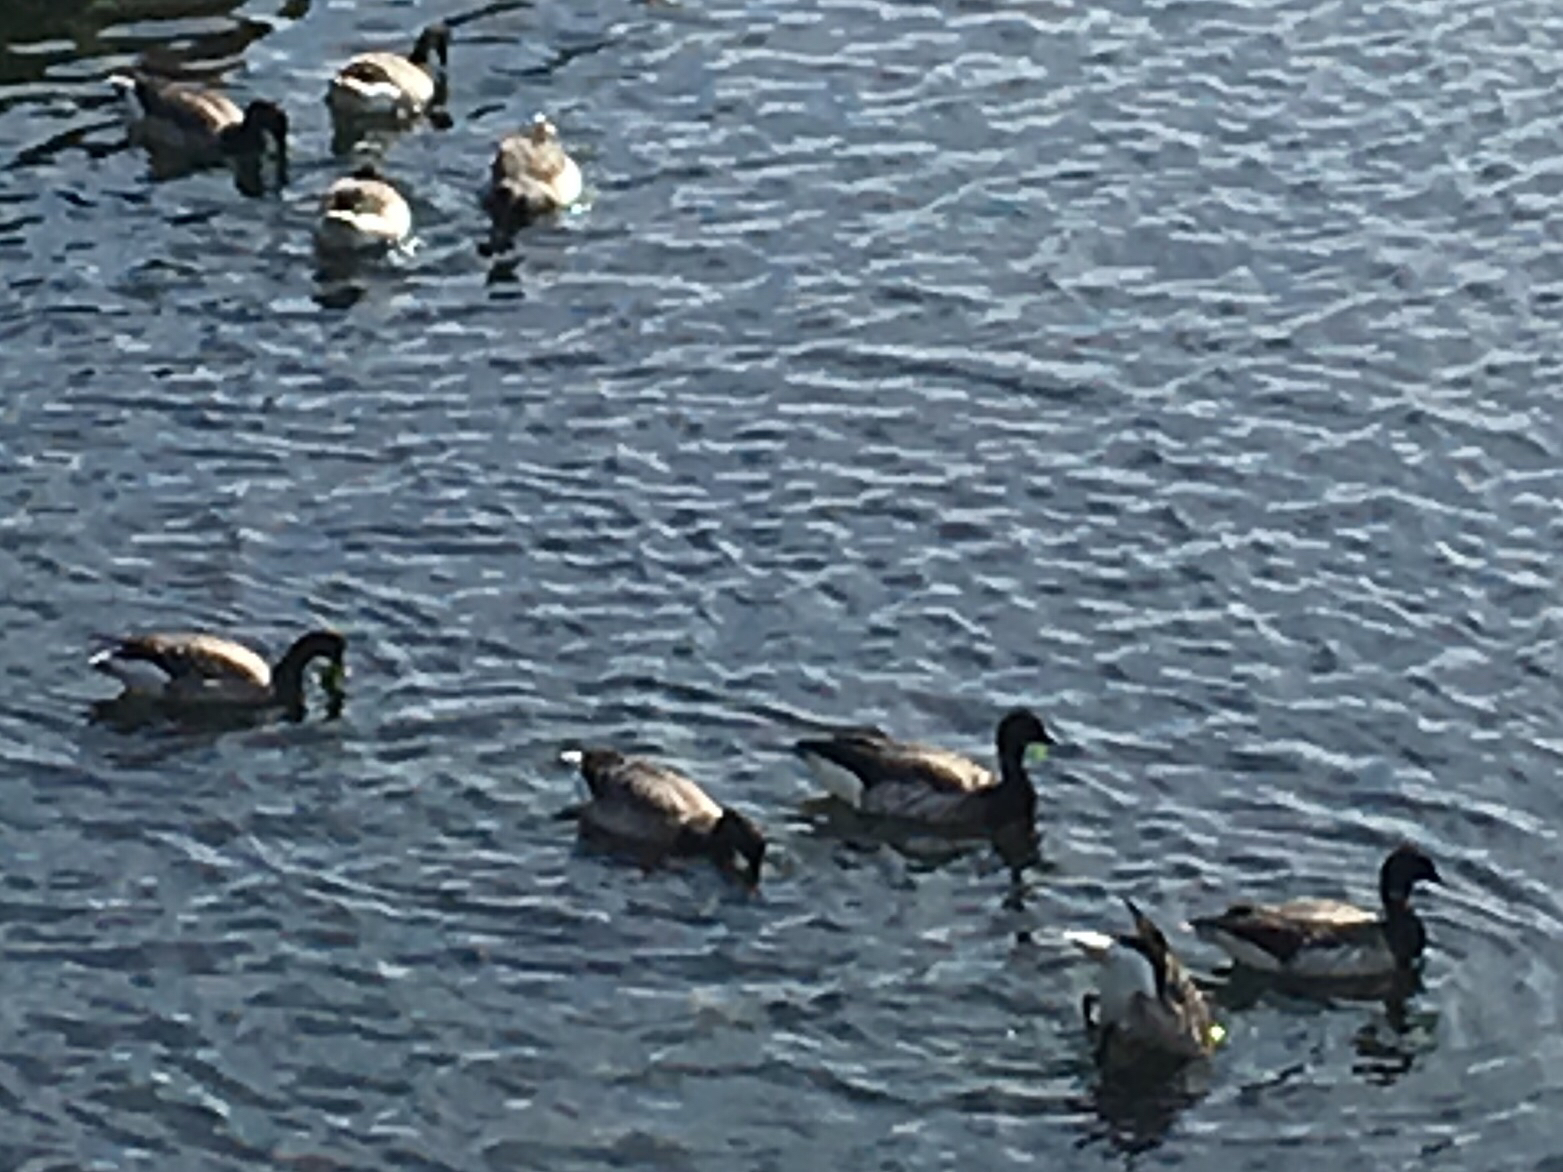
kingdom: Animalia
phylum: Chordata
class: Aves
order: Anseriformes
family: Anatidae
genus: Branta
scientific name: Branta bernicla
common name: Brant goose
